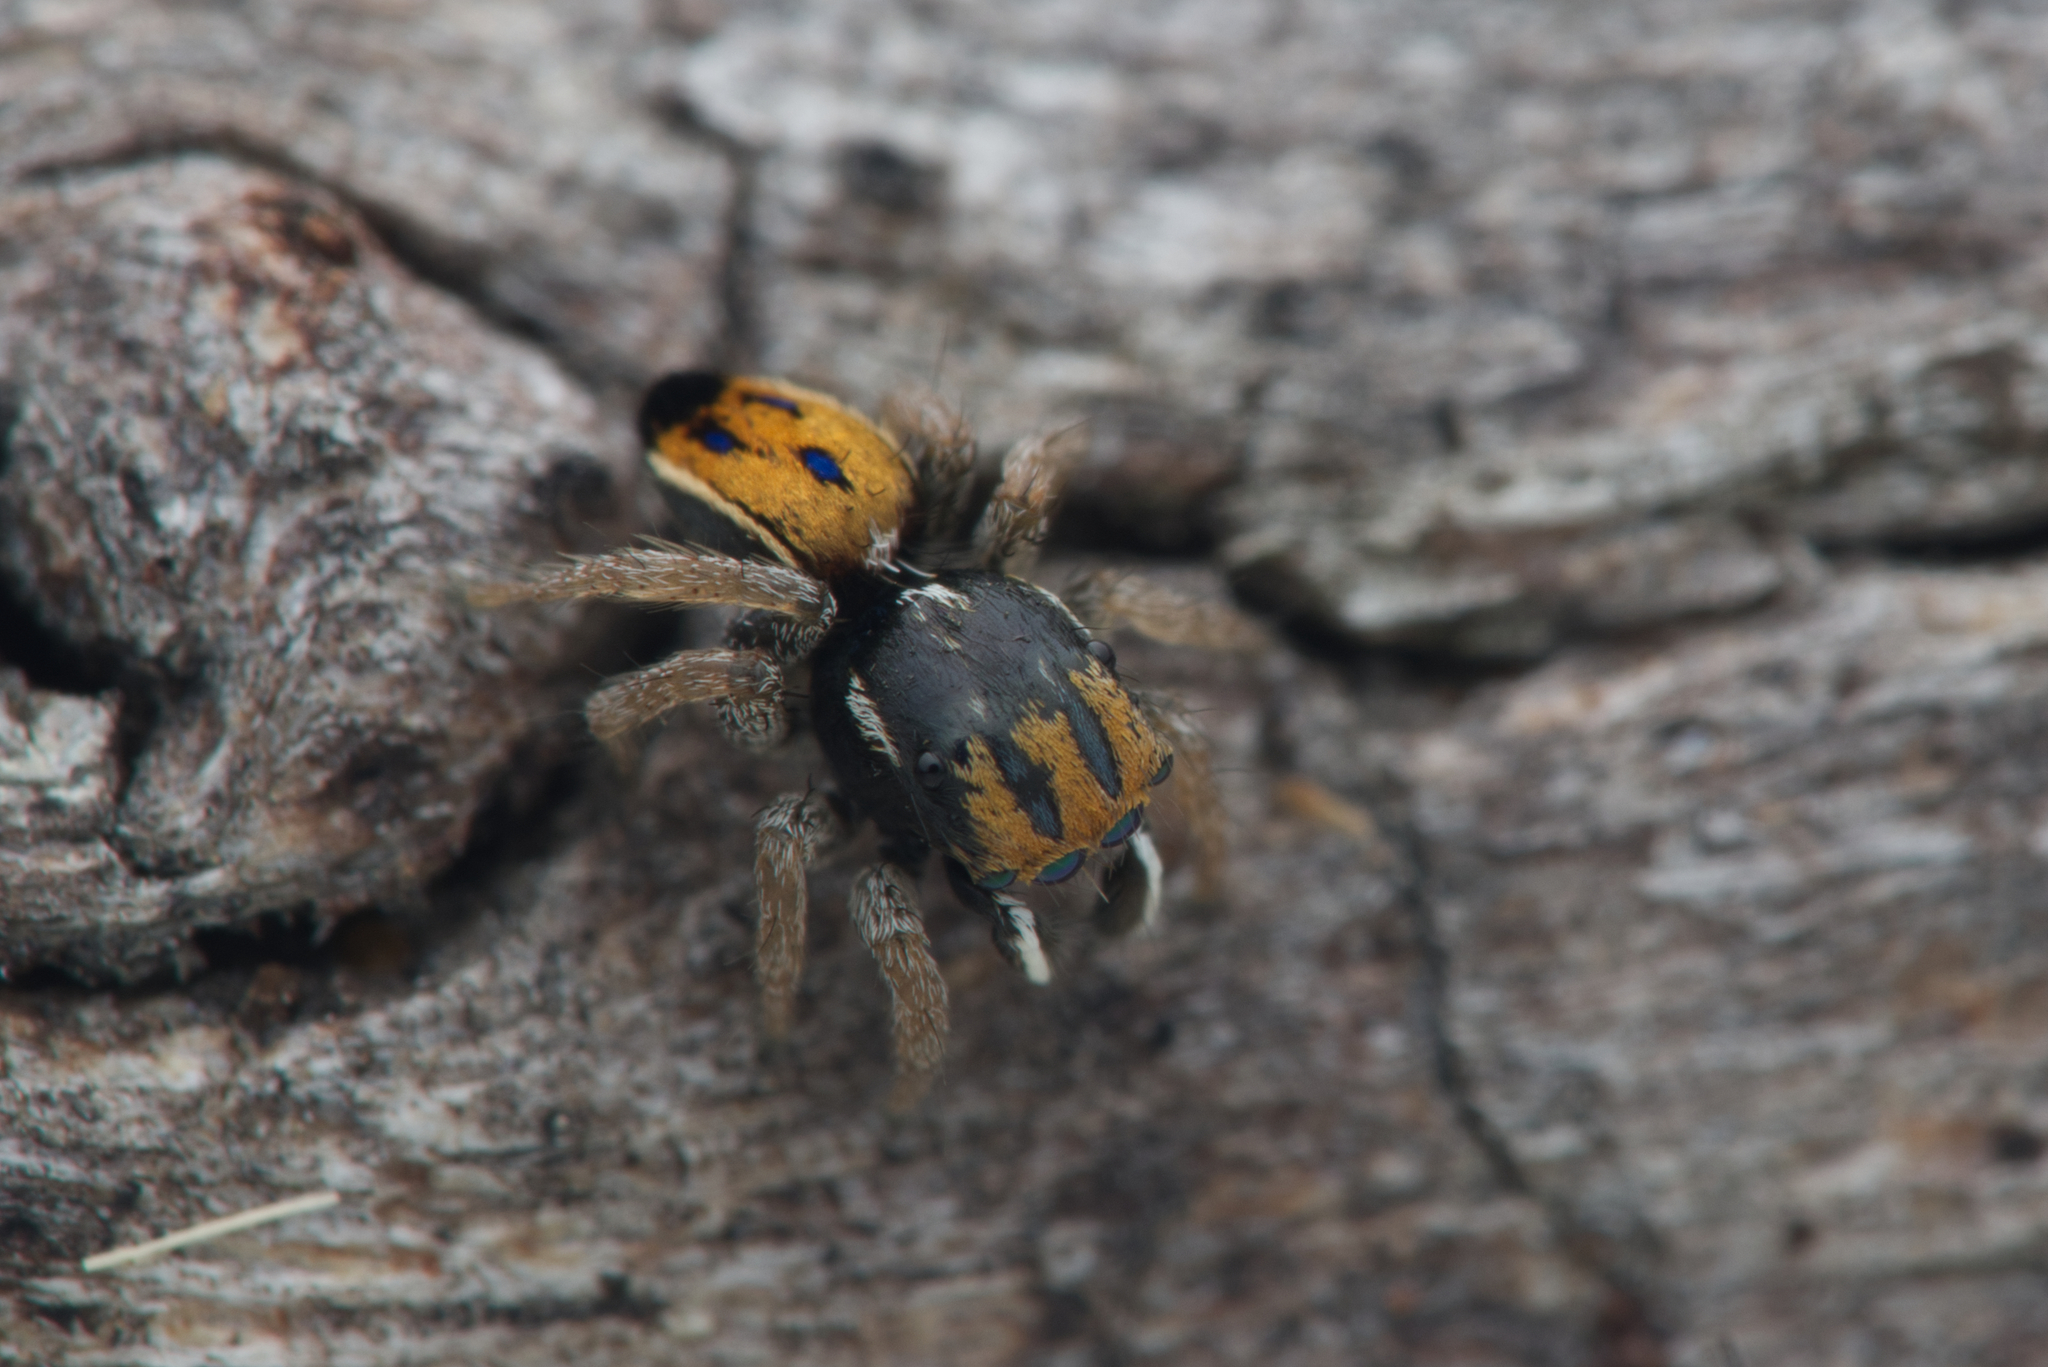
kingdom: Animalia
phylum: Arthropoda
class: Arachnida
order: Araneae
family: Salticidae
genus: Maratus
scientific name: Maratus purcellae
